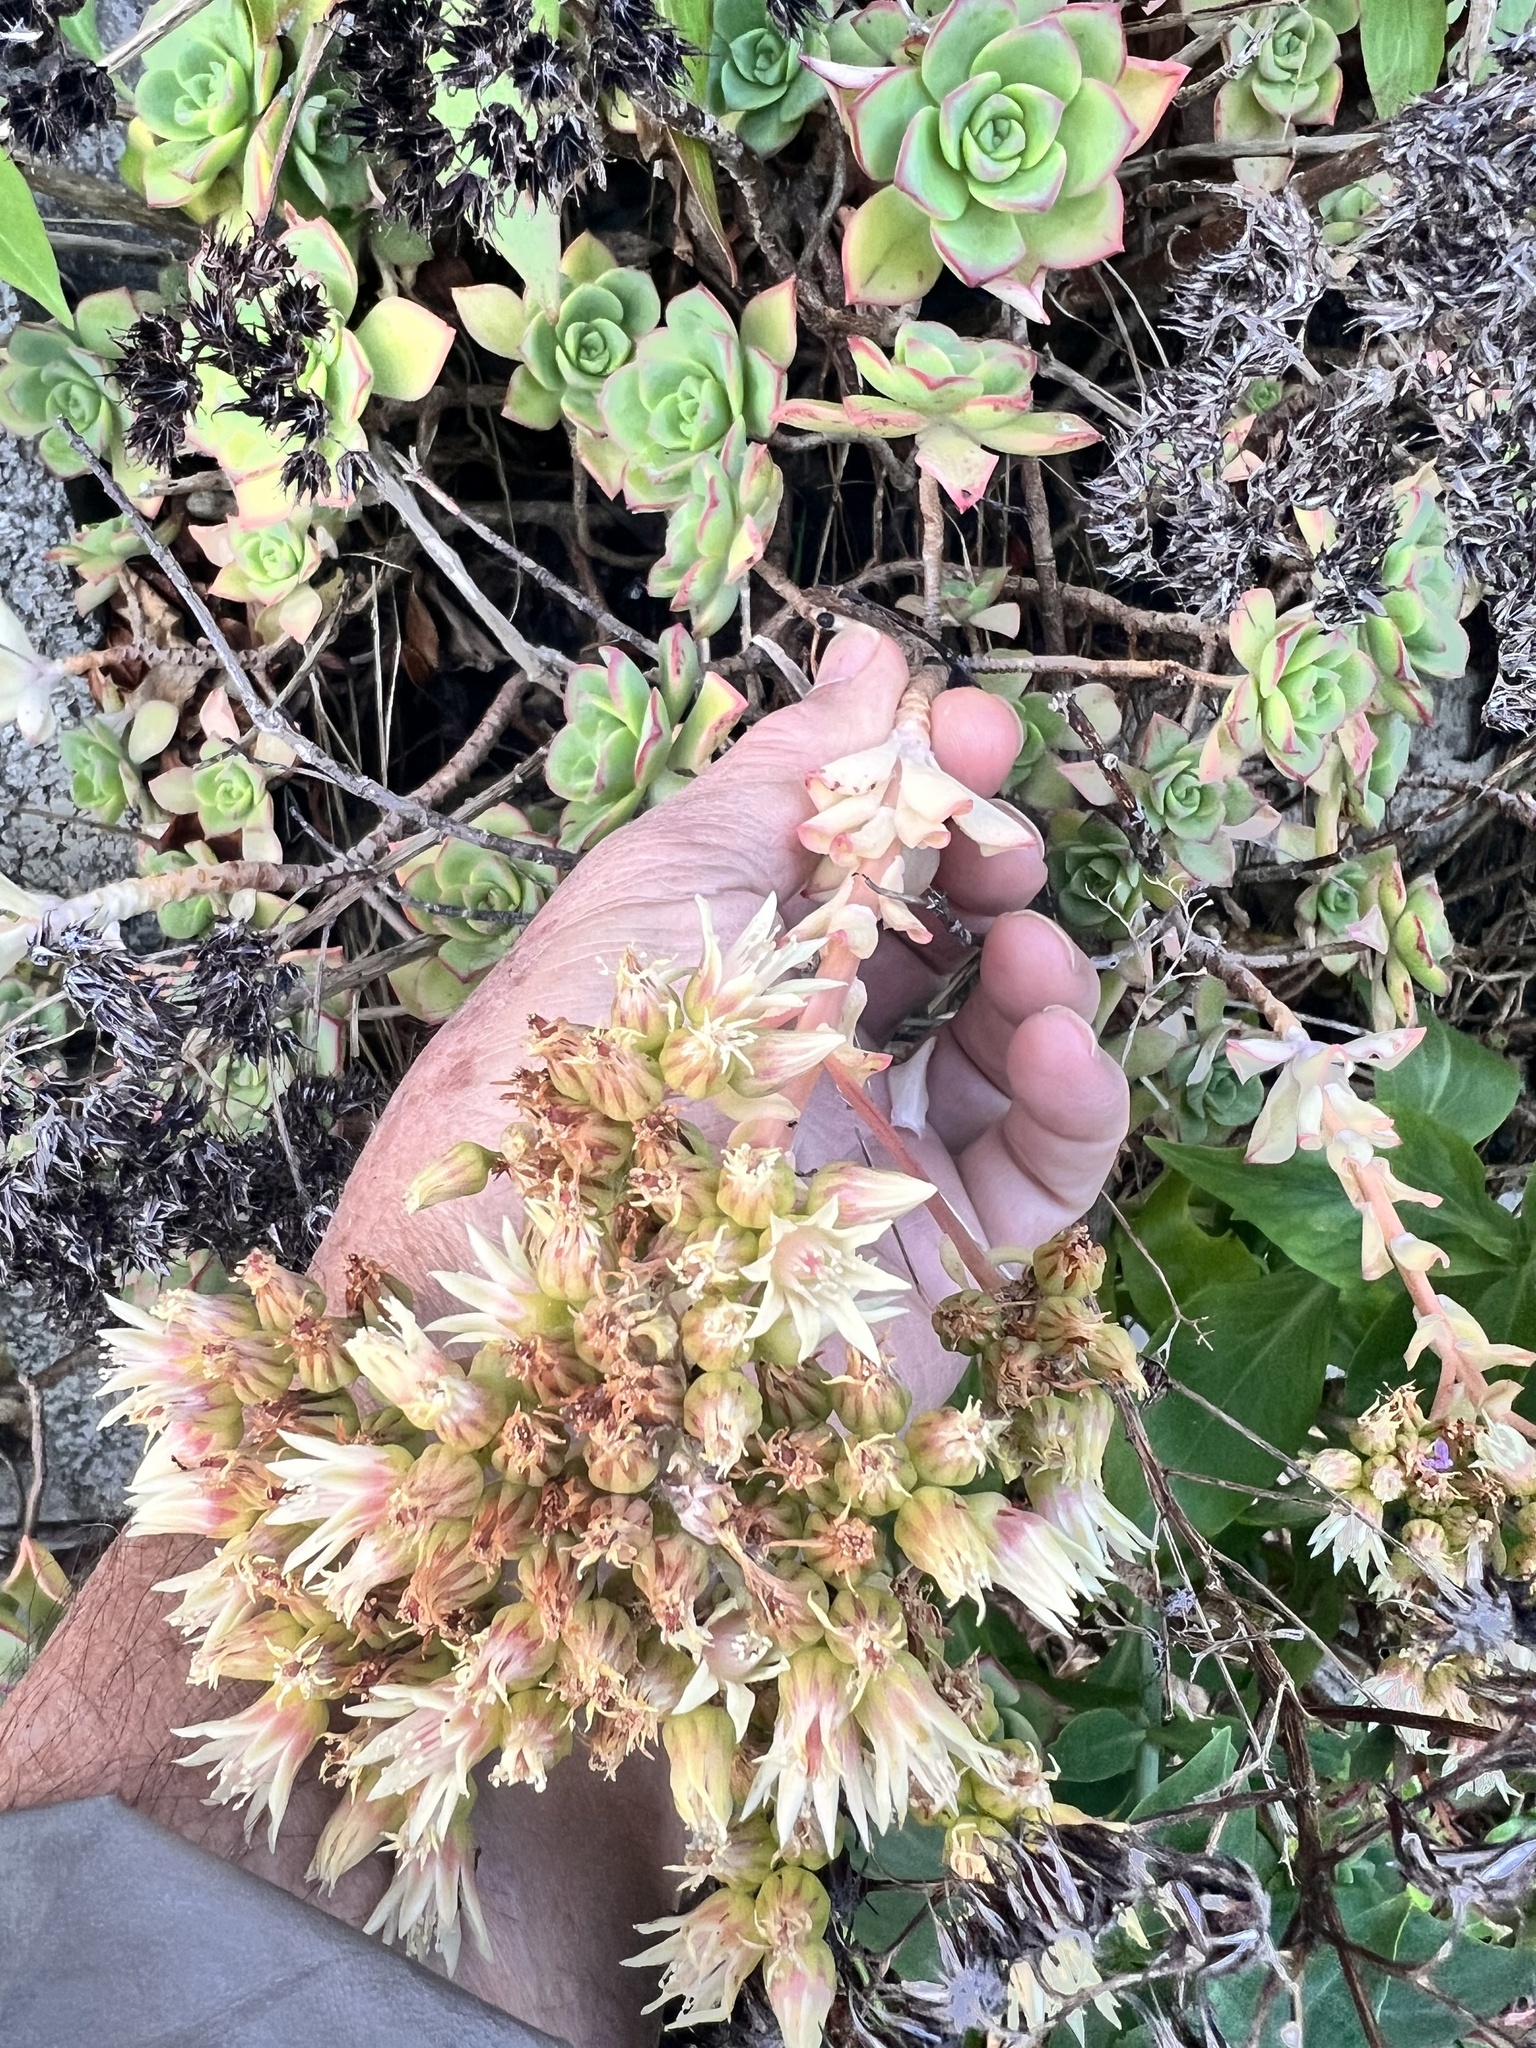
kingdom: Plantae
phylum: Tracheophyta
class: Magnoliopsida
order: Saxifragales
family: Crassulaceae
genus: Aeonium
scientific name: Aeonium haworthii
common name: Haworth's aeonium
